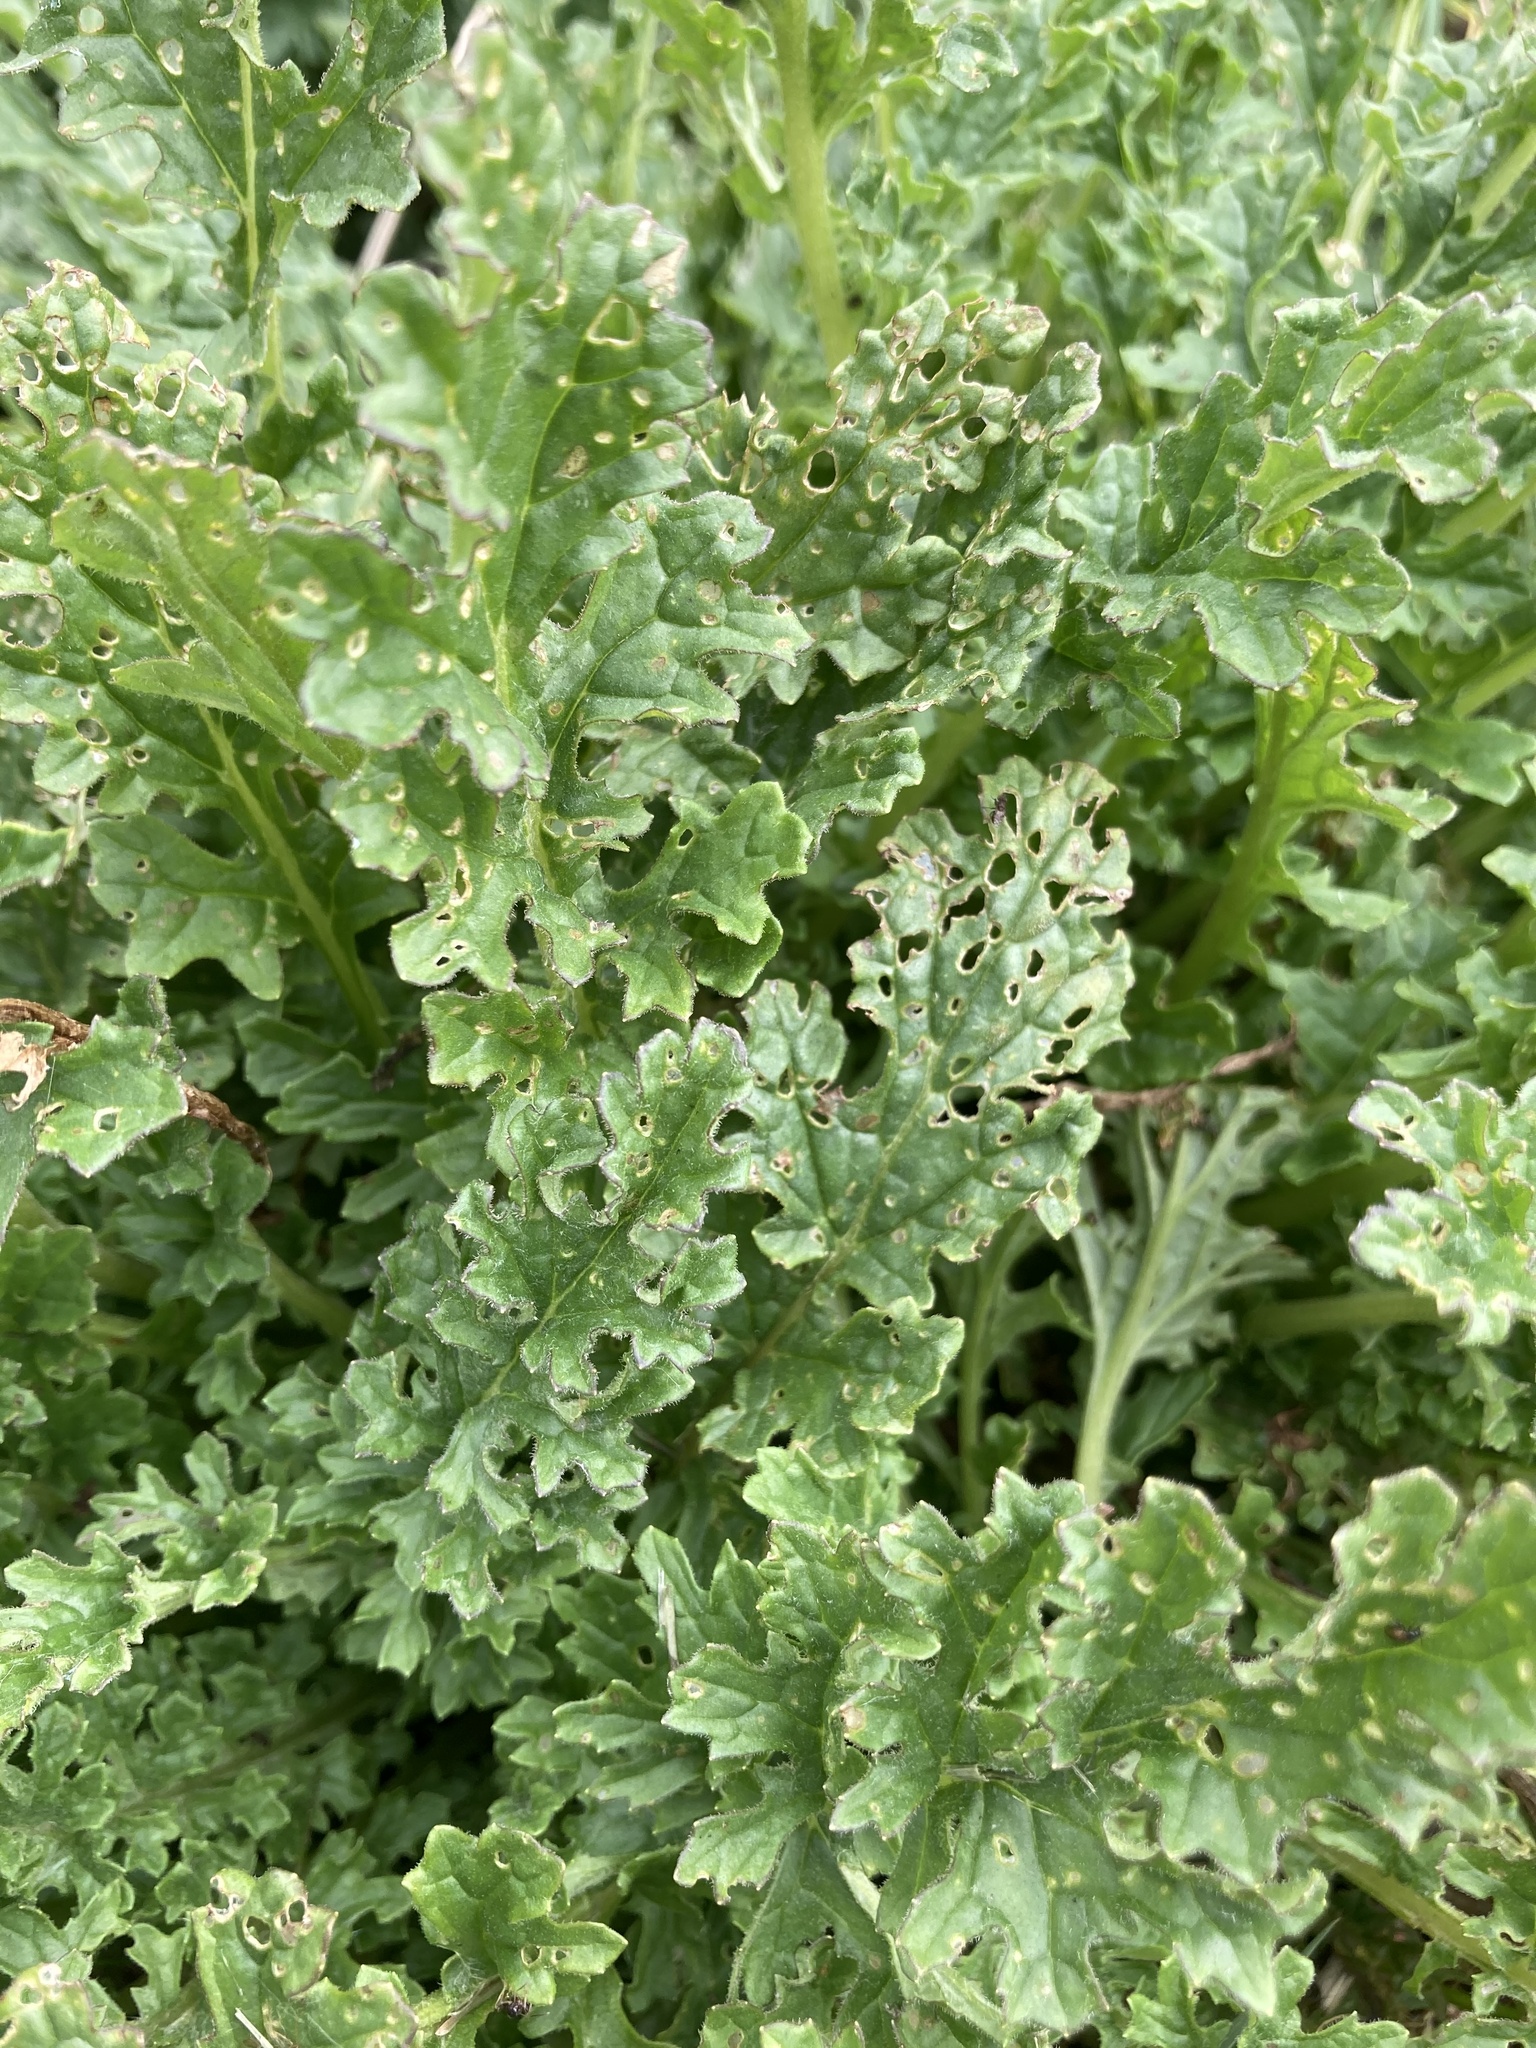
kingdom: Plantae
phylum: Tracheophyta
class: Magnoliopsida
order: Asterales
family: Asteraceae
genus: Jacobaea
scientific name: Jacobaea vulgaris
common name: Stinking willie
